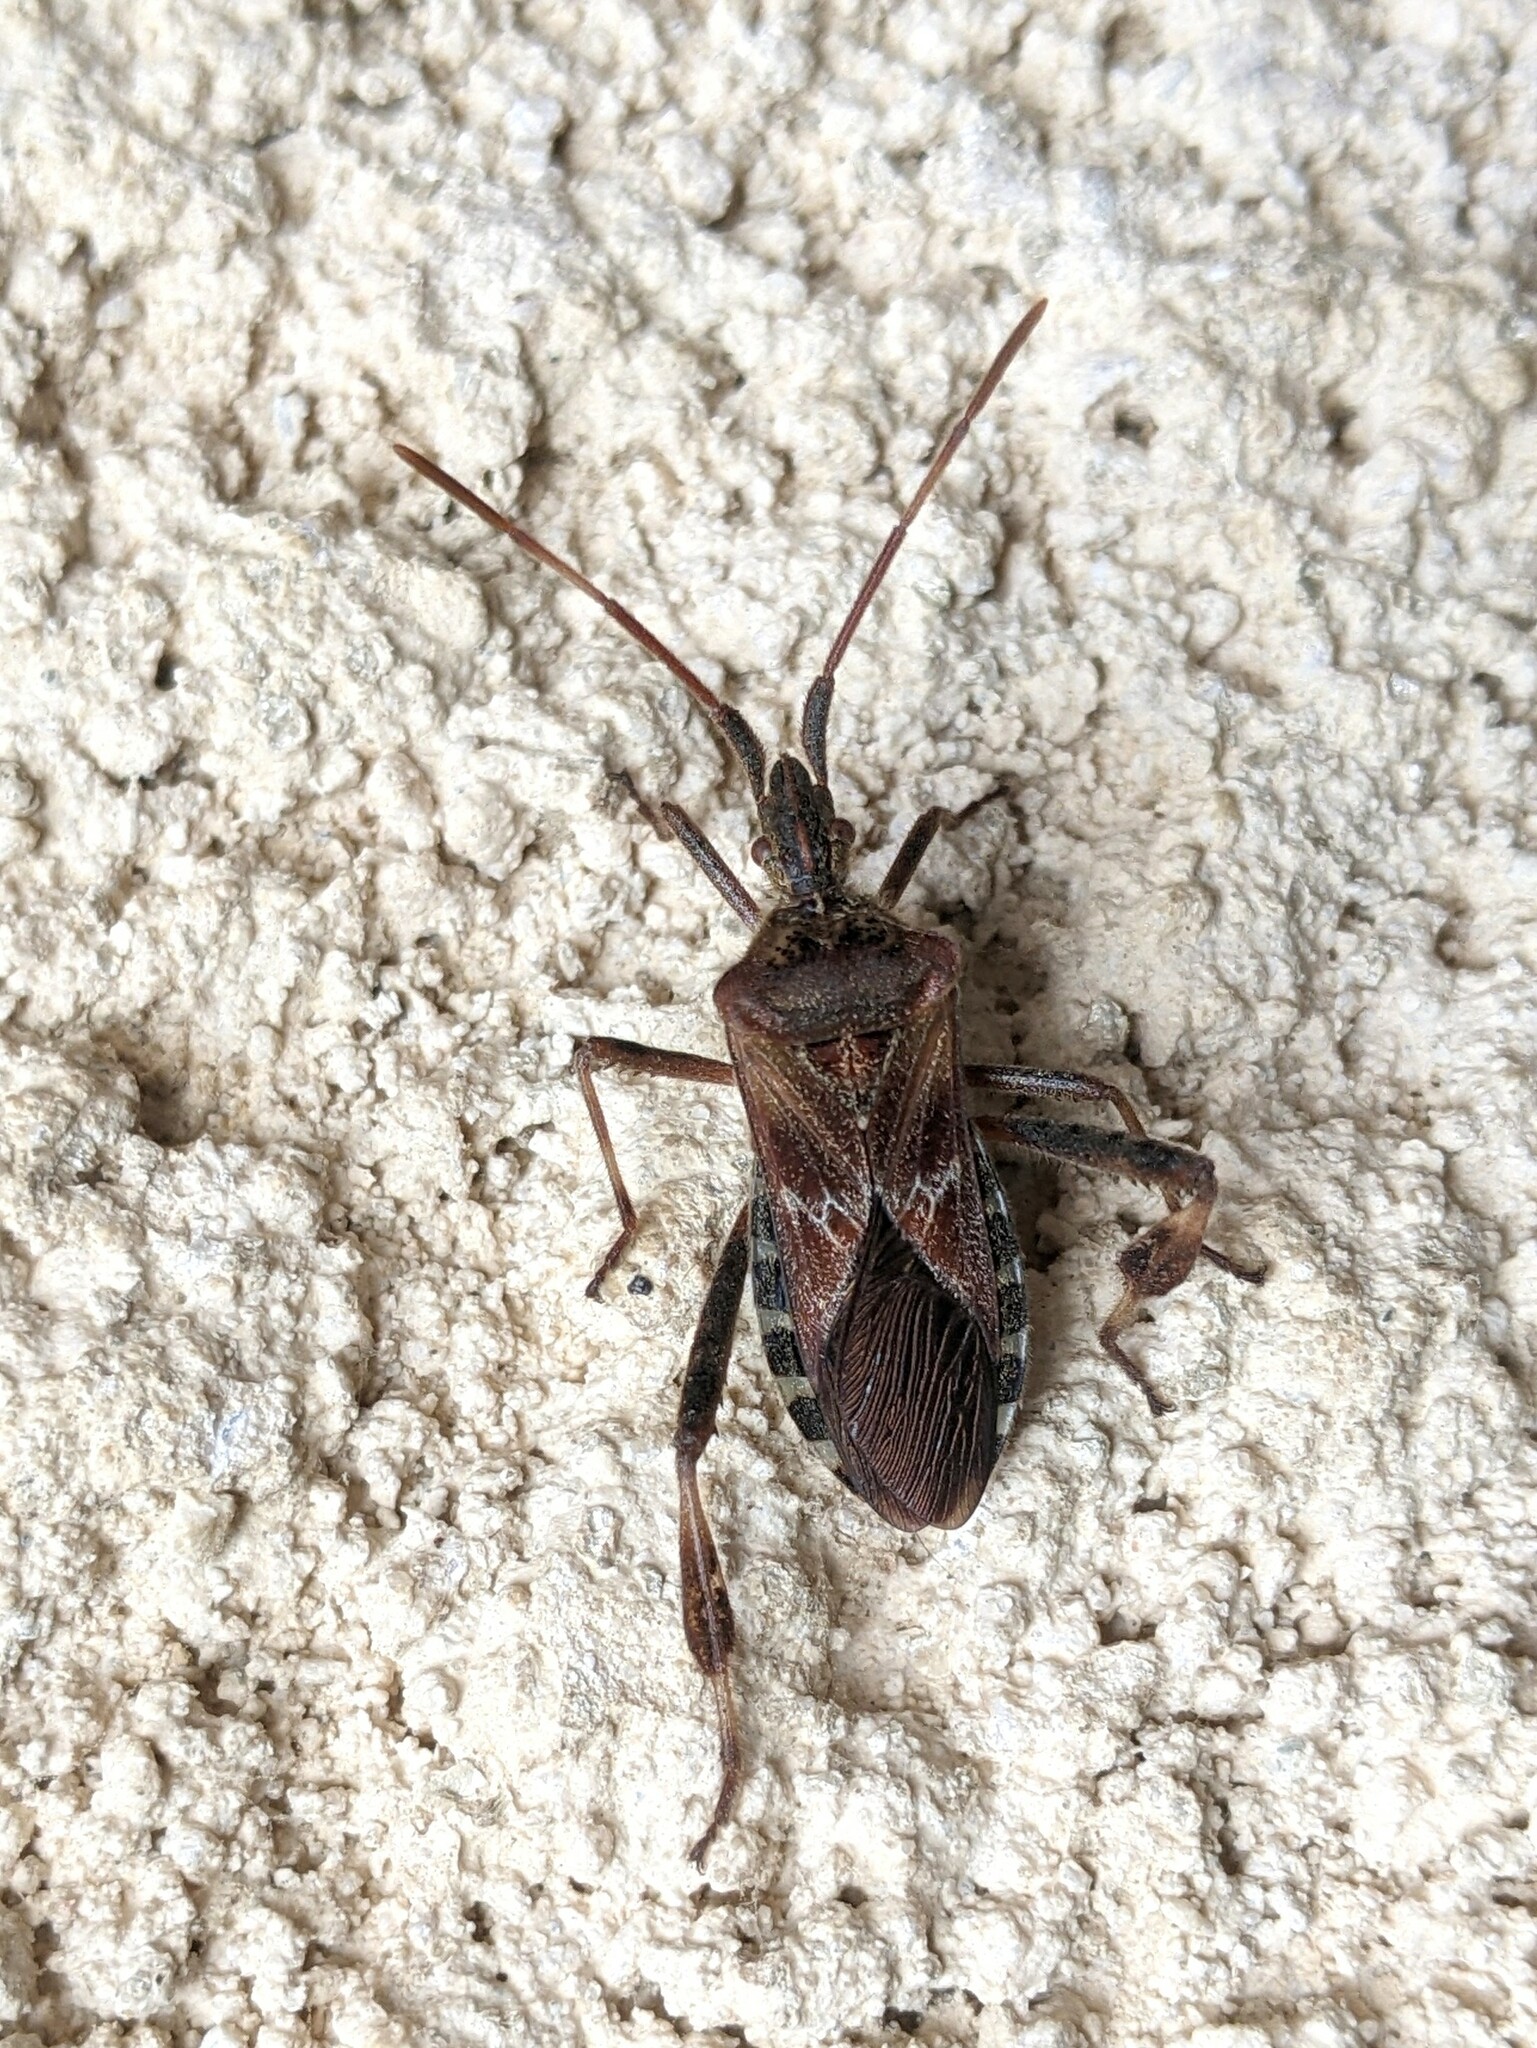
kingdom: Animalia
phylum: Arthropoda
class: Insecta
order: Hemiptera
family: Coreidae
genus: Leptoglossus
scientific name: Leptoglossus occidentalis
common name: Western conifer-seed bug
